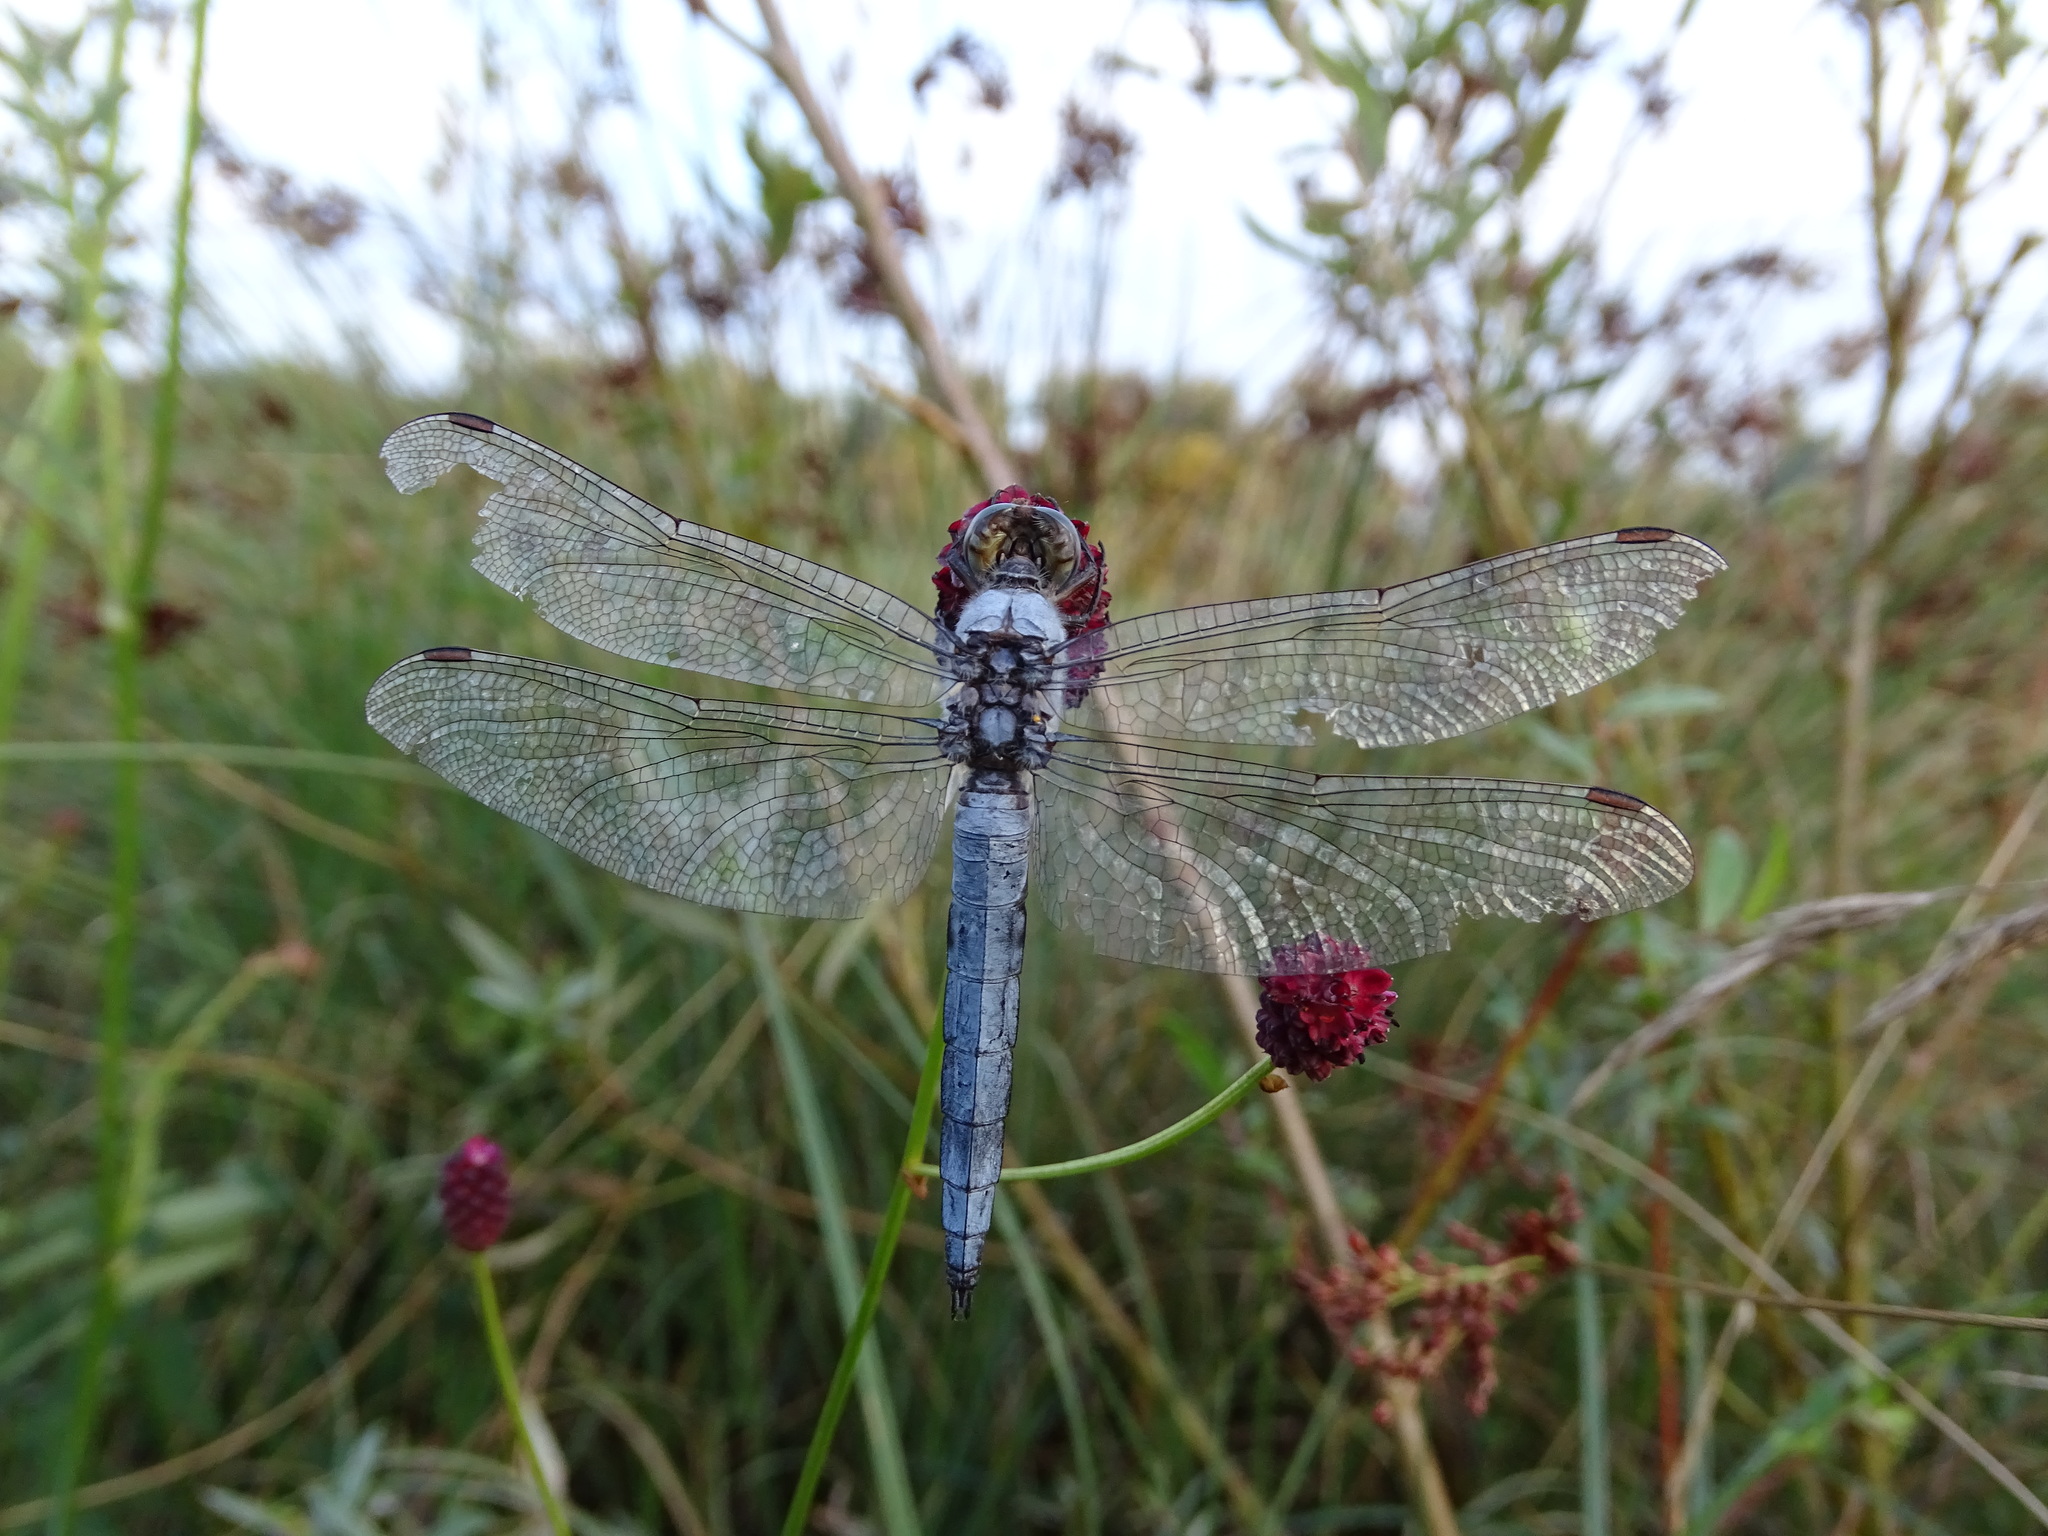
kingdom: Animalia
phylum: Arthropoda
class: Insecta
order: Odonata
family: Libellulidae
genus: Orthetrum
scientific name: Orthetrum brunneum
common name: Southern skimmer
